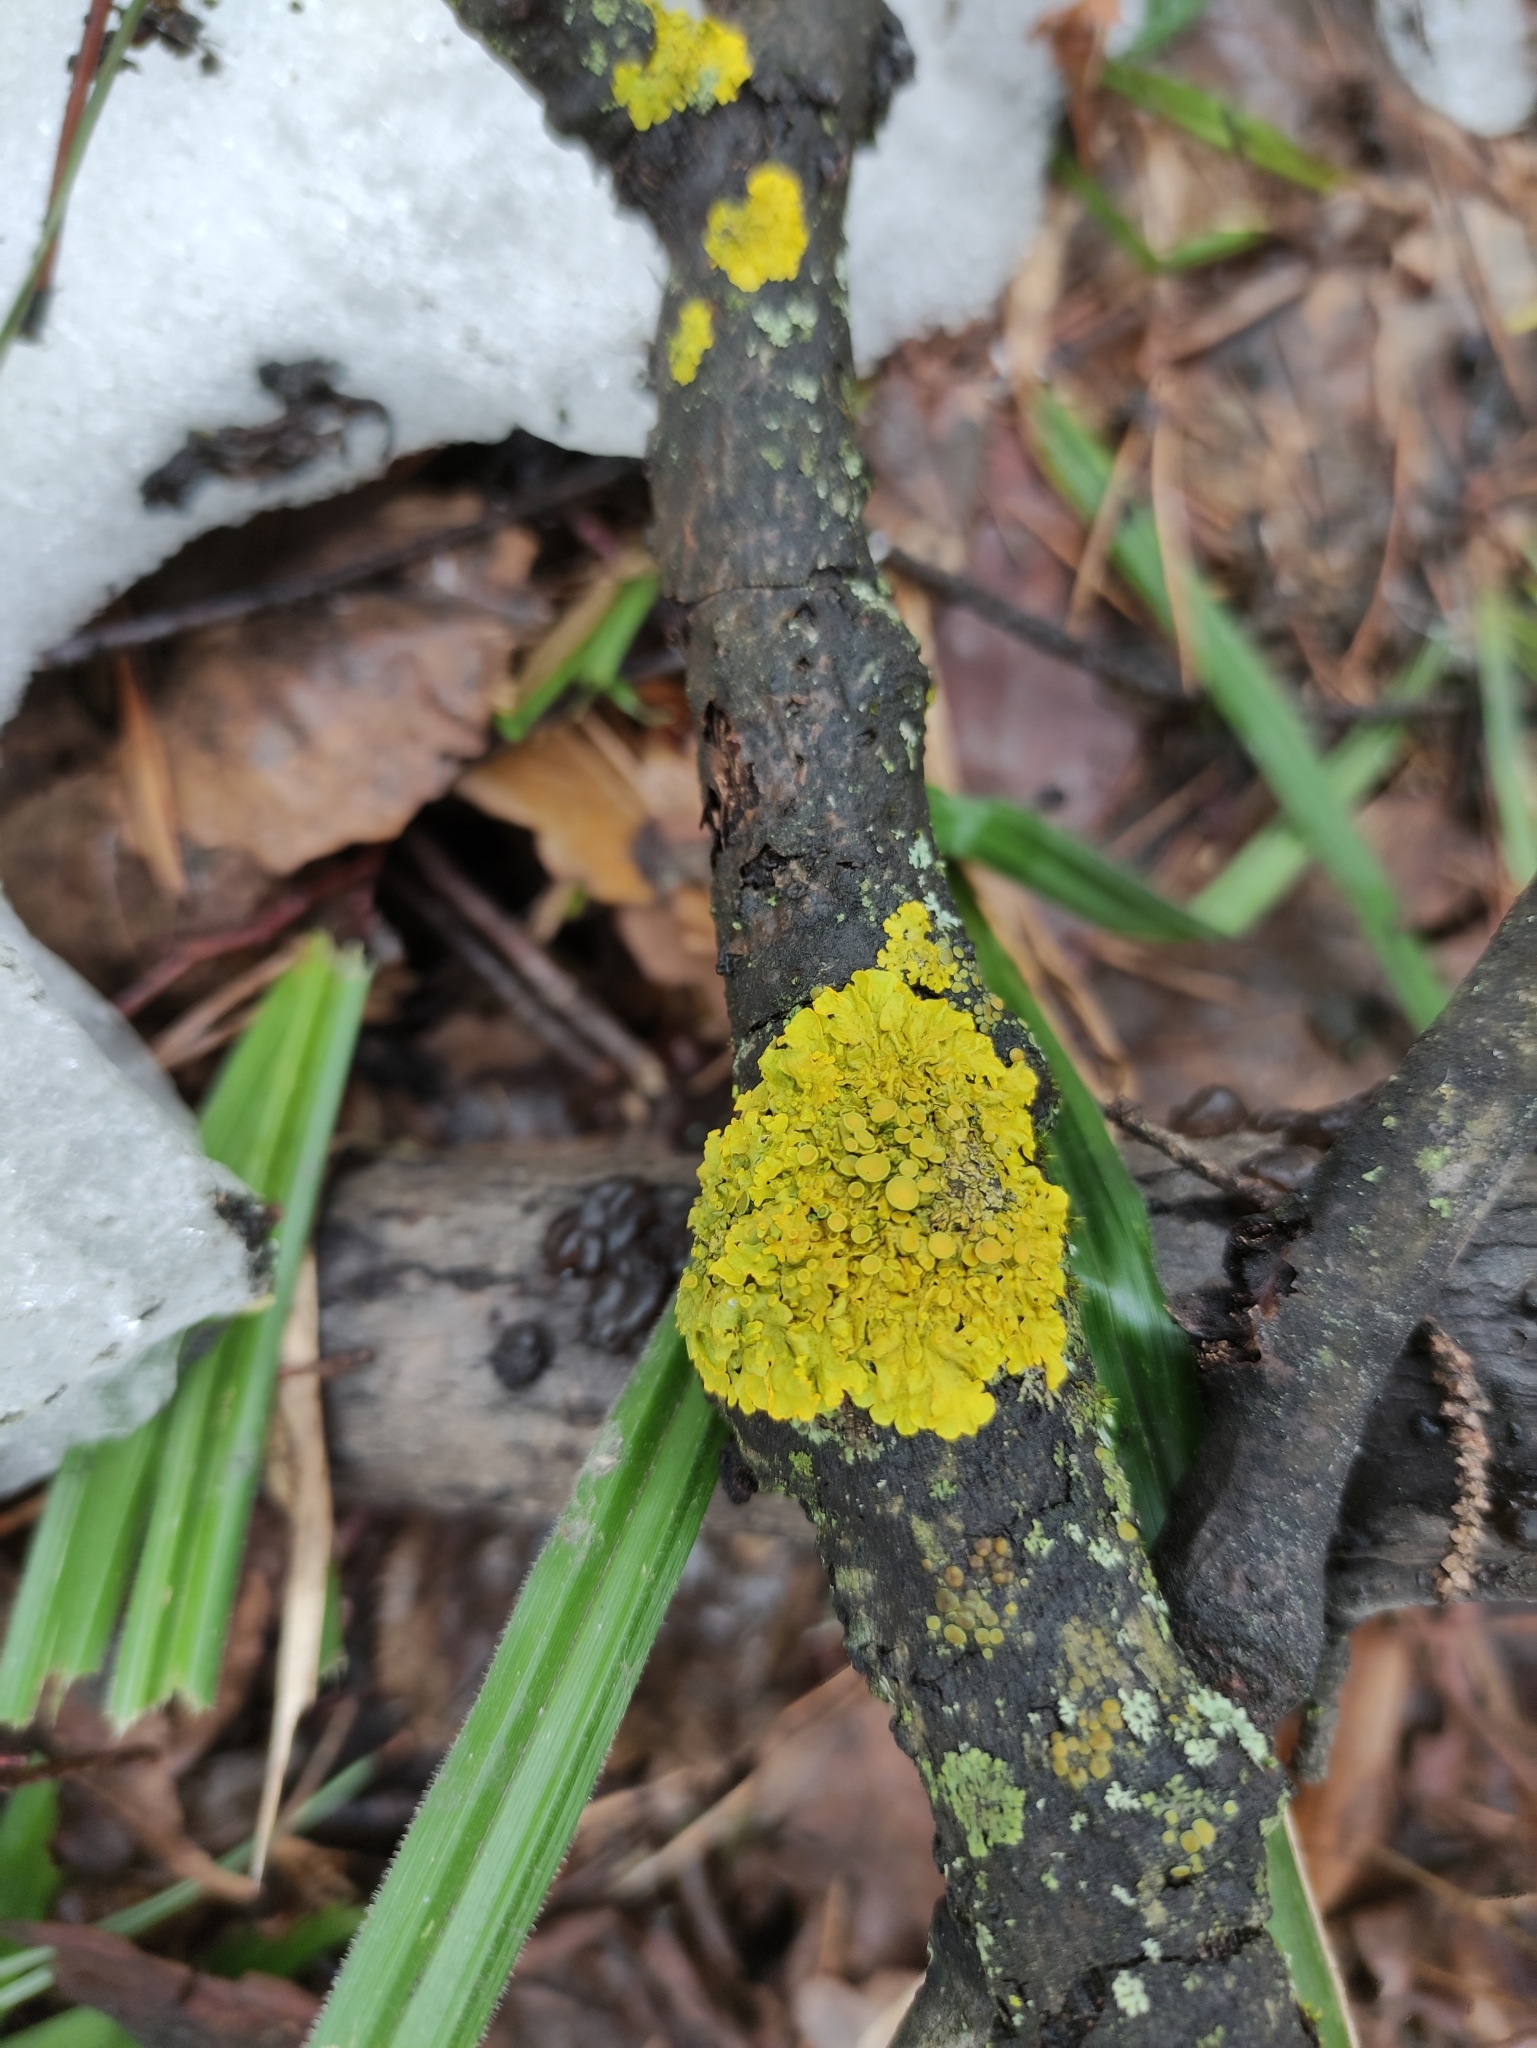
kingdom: Fungi
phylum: Ascomycota
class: Lecanoromycetes
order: Teloschistales
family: Teloschistaceae
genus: Xanthoria
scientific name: Xanthoria parietina
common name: Common orange lichen
